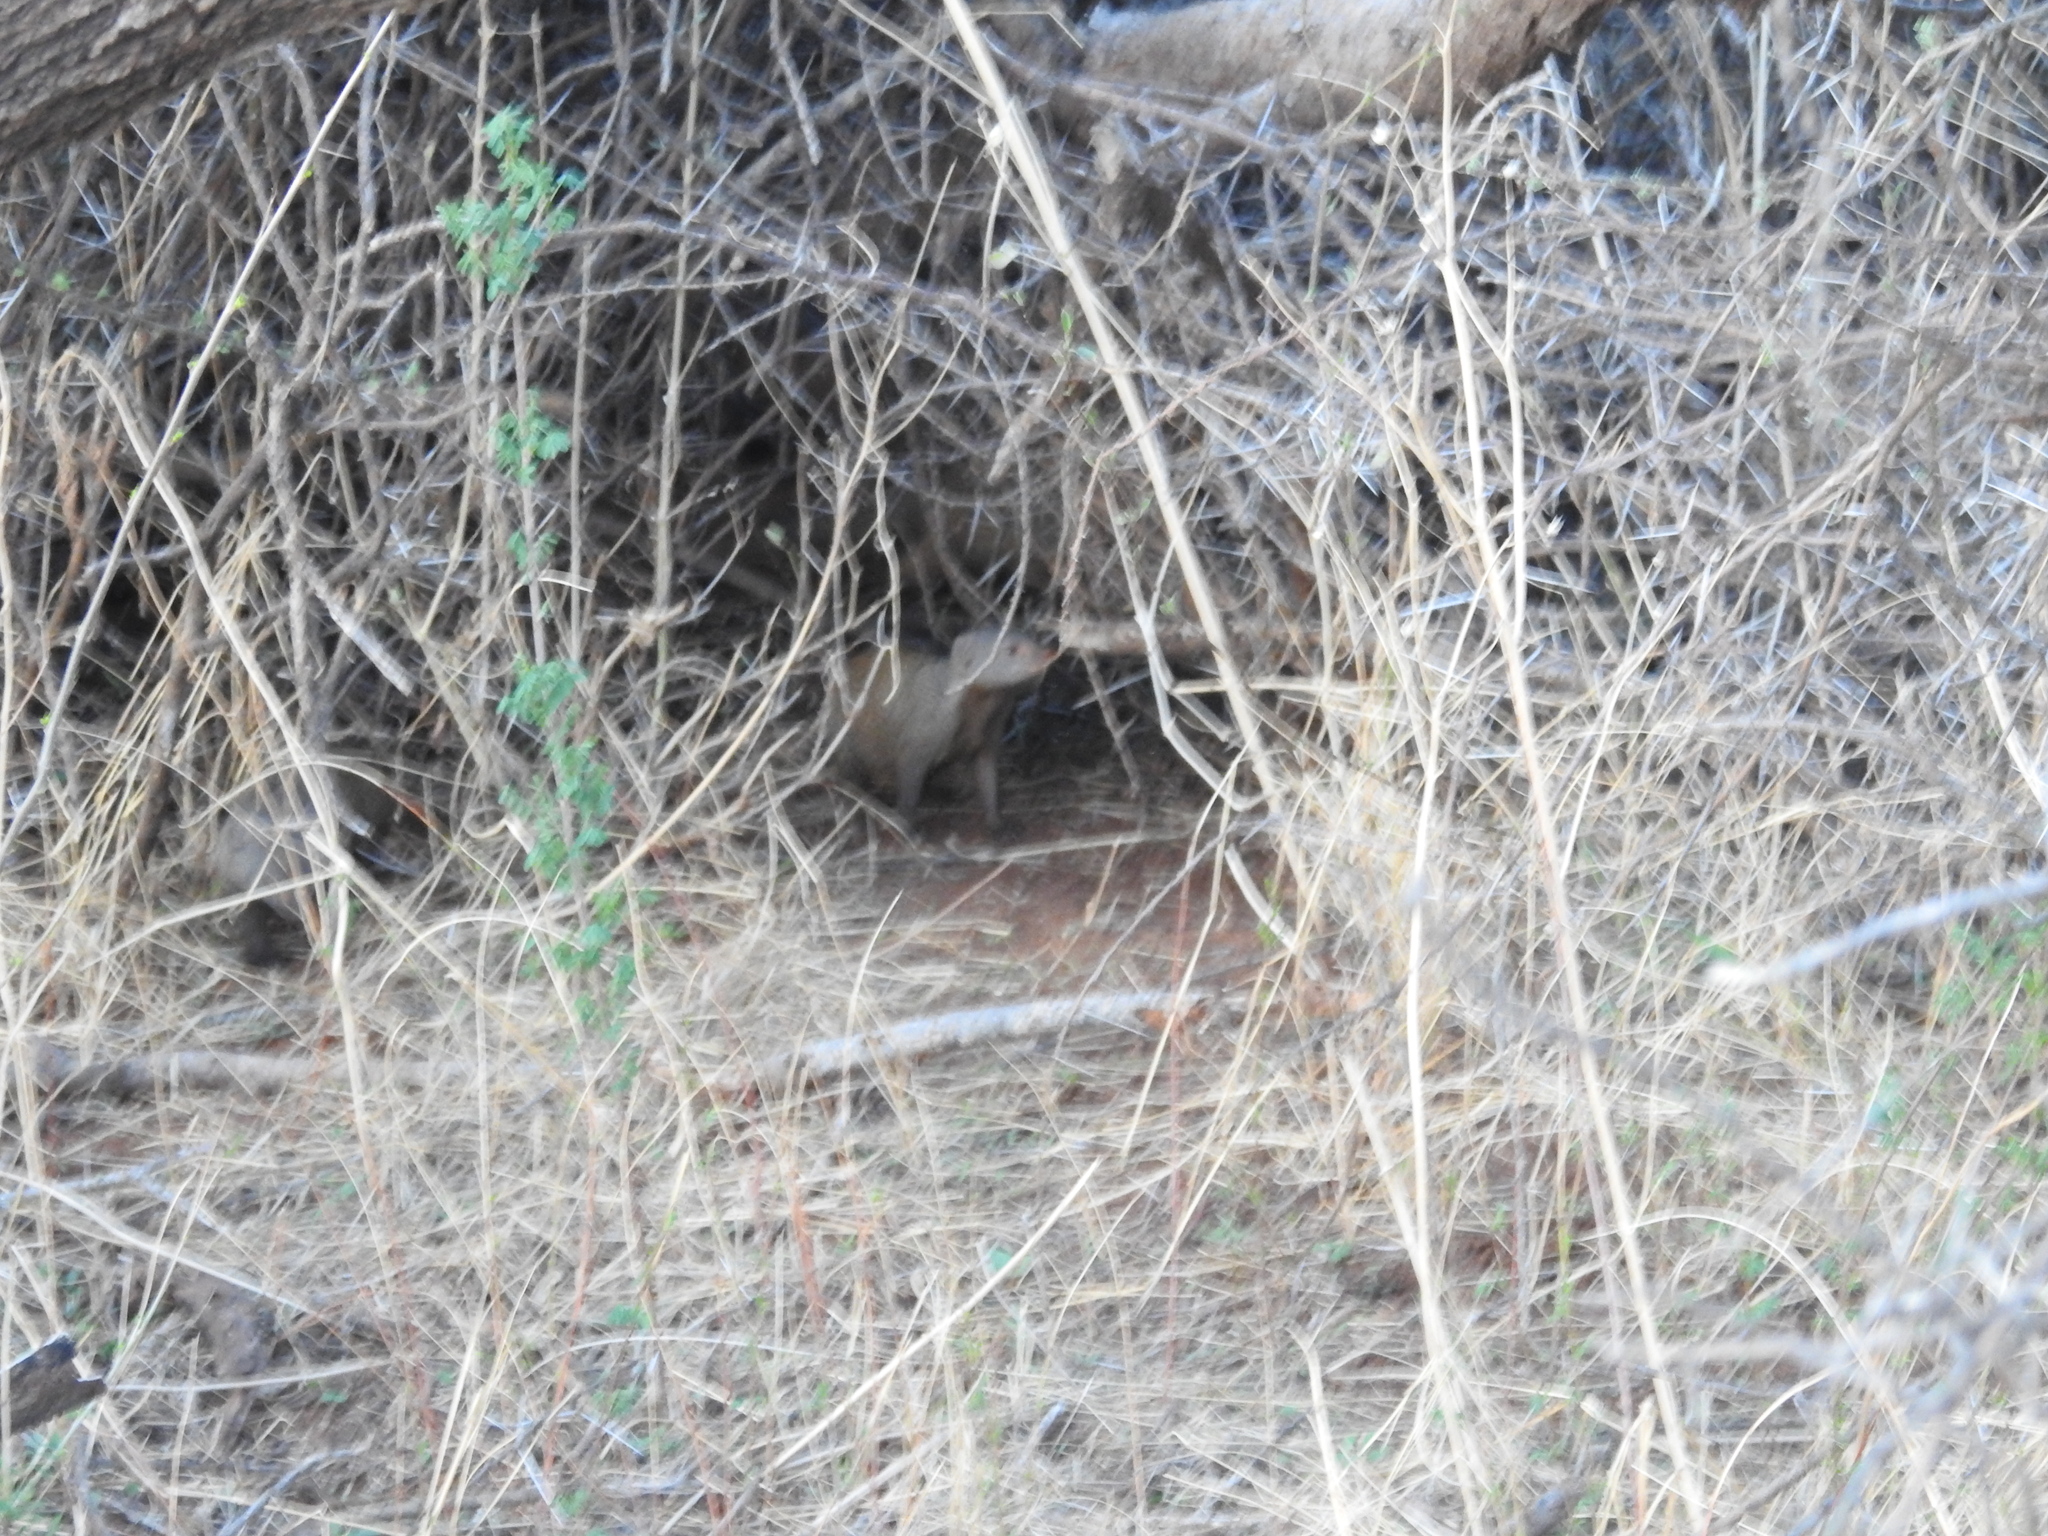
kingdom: Animalia
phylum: Chordata
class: Mammalia
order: Carnivora
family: Herpestidae
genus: Helogale
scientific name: Helogale hirtula
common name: Ethiopian dwarf mongoose
